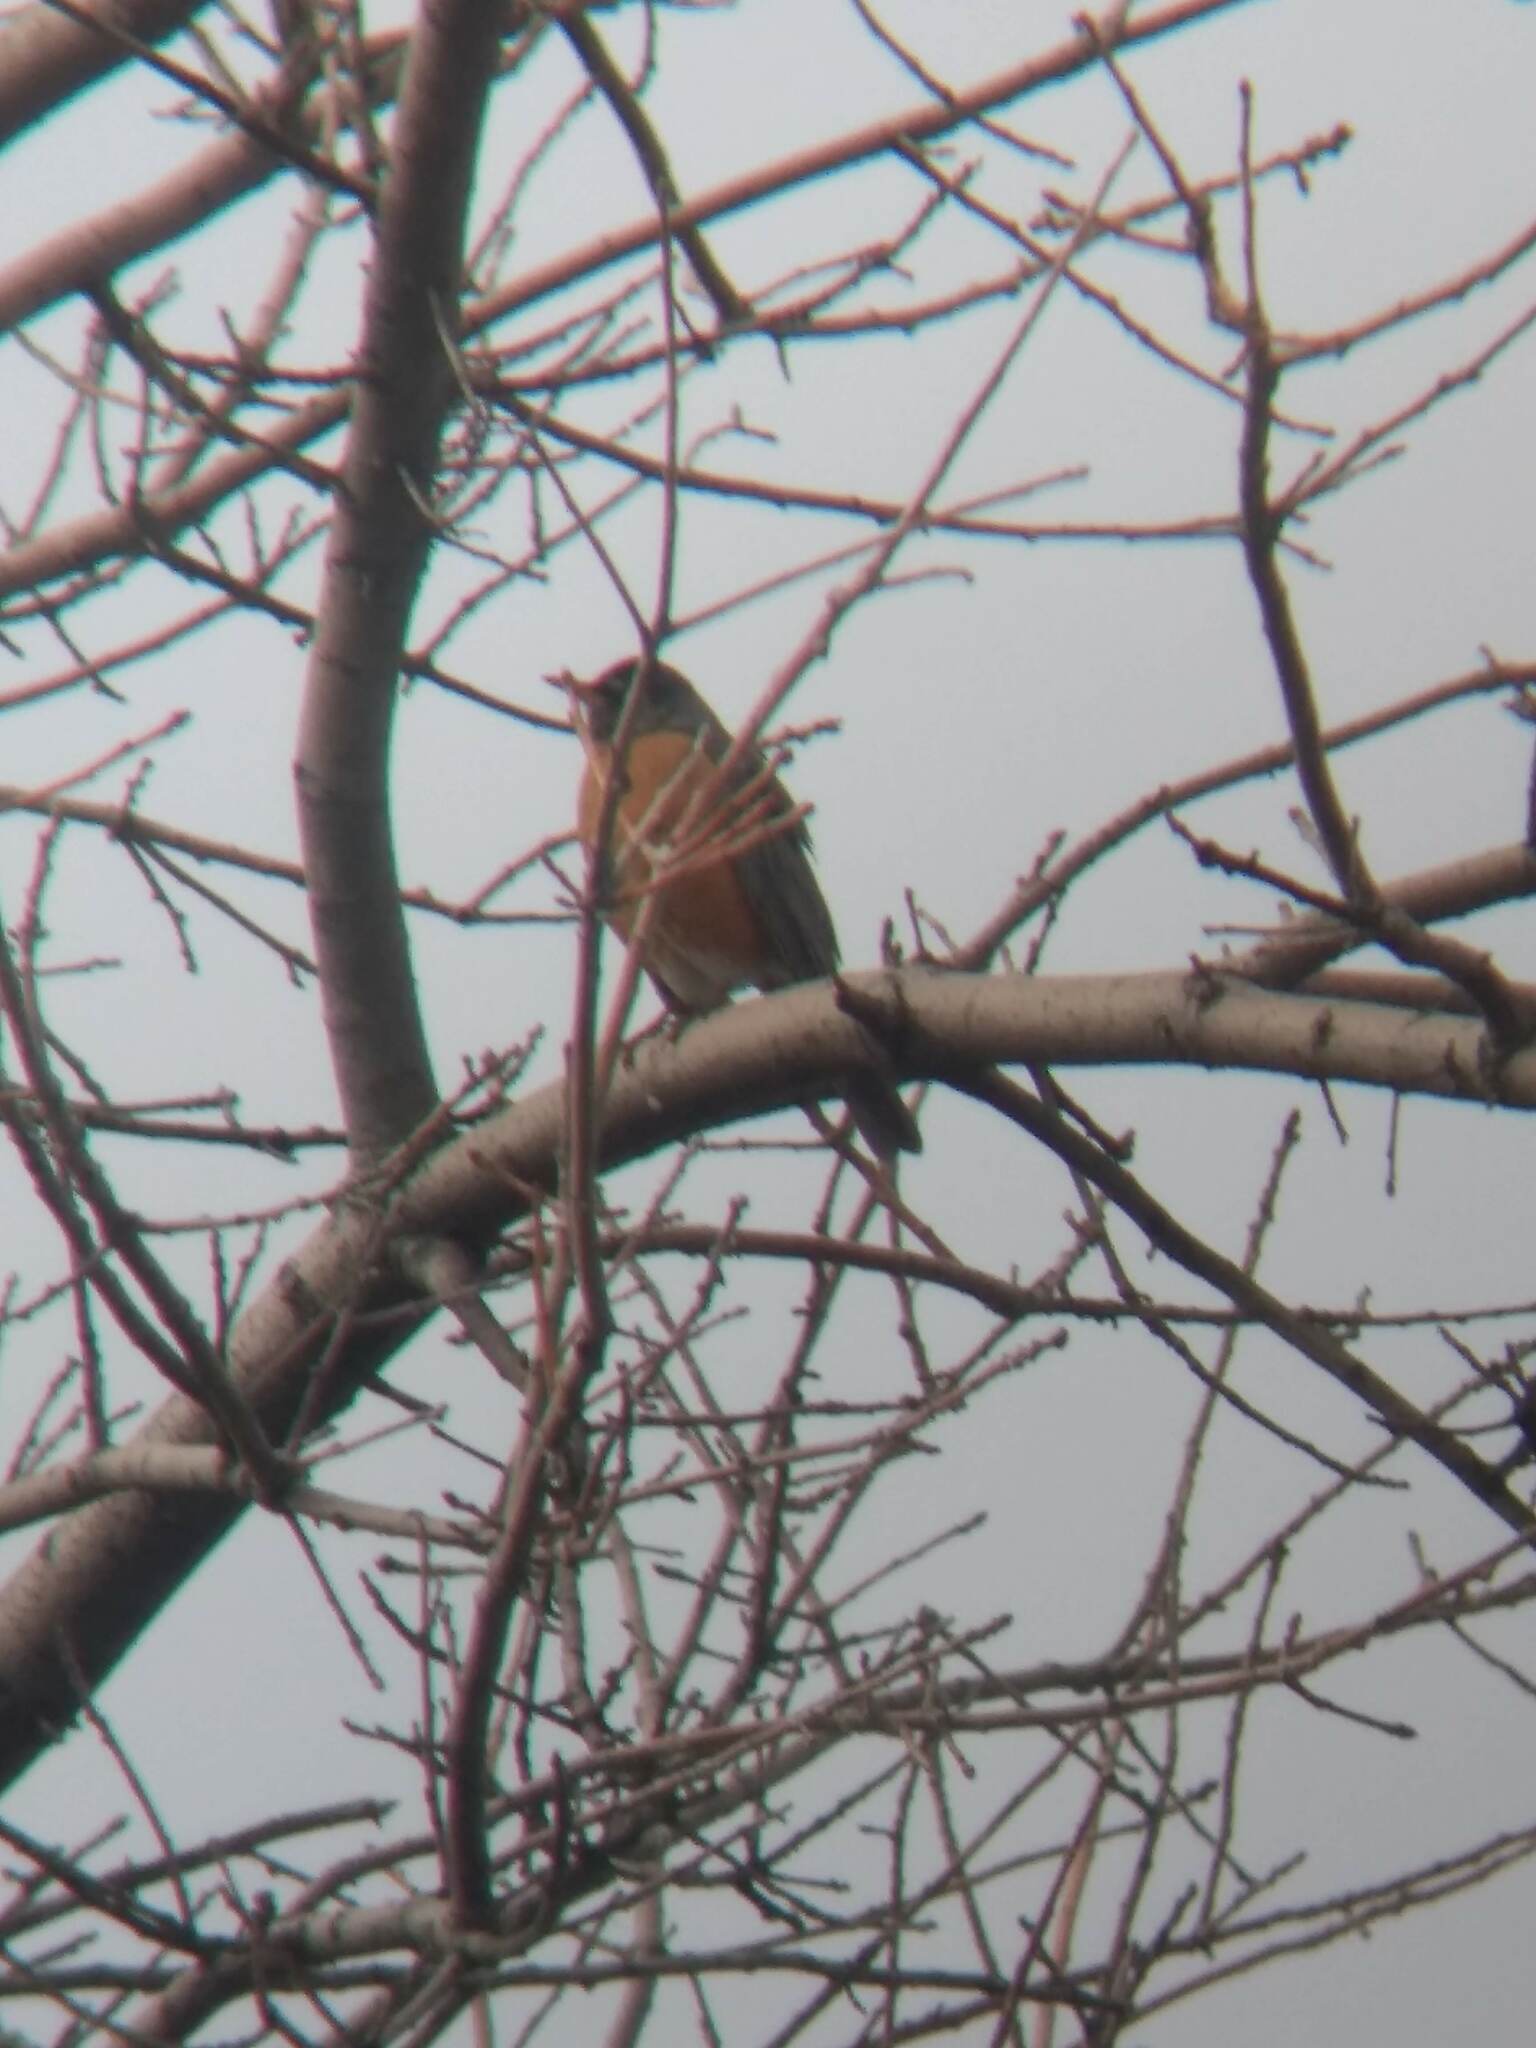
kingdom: Animalia
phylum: Chordata
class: Aves
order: Passeriformes
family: Turdidae
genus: Turdus
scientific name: Turdus migratorius
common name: American robin
